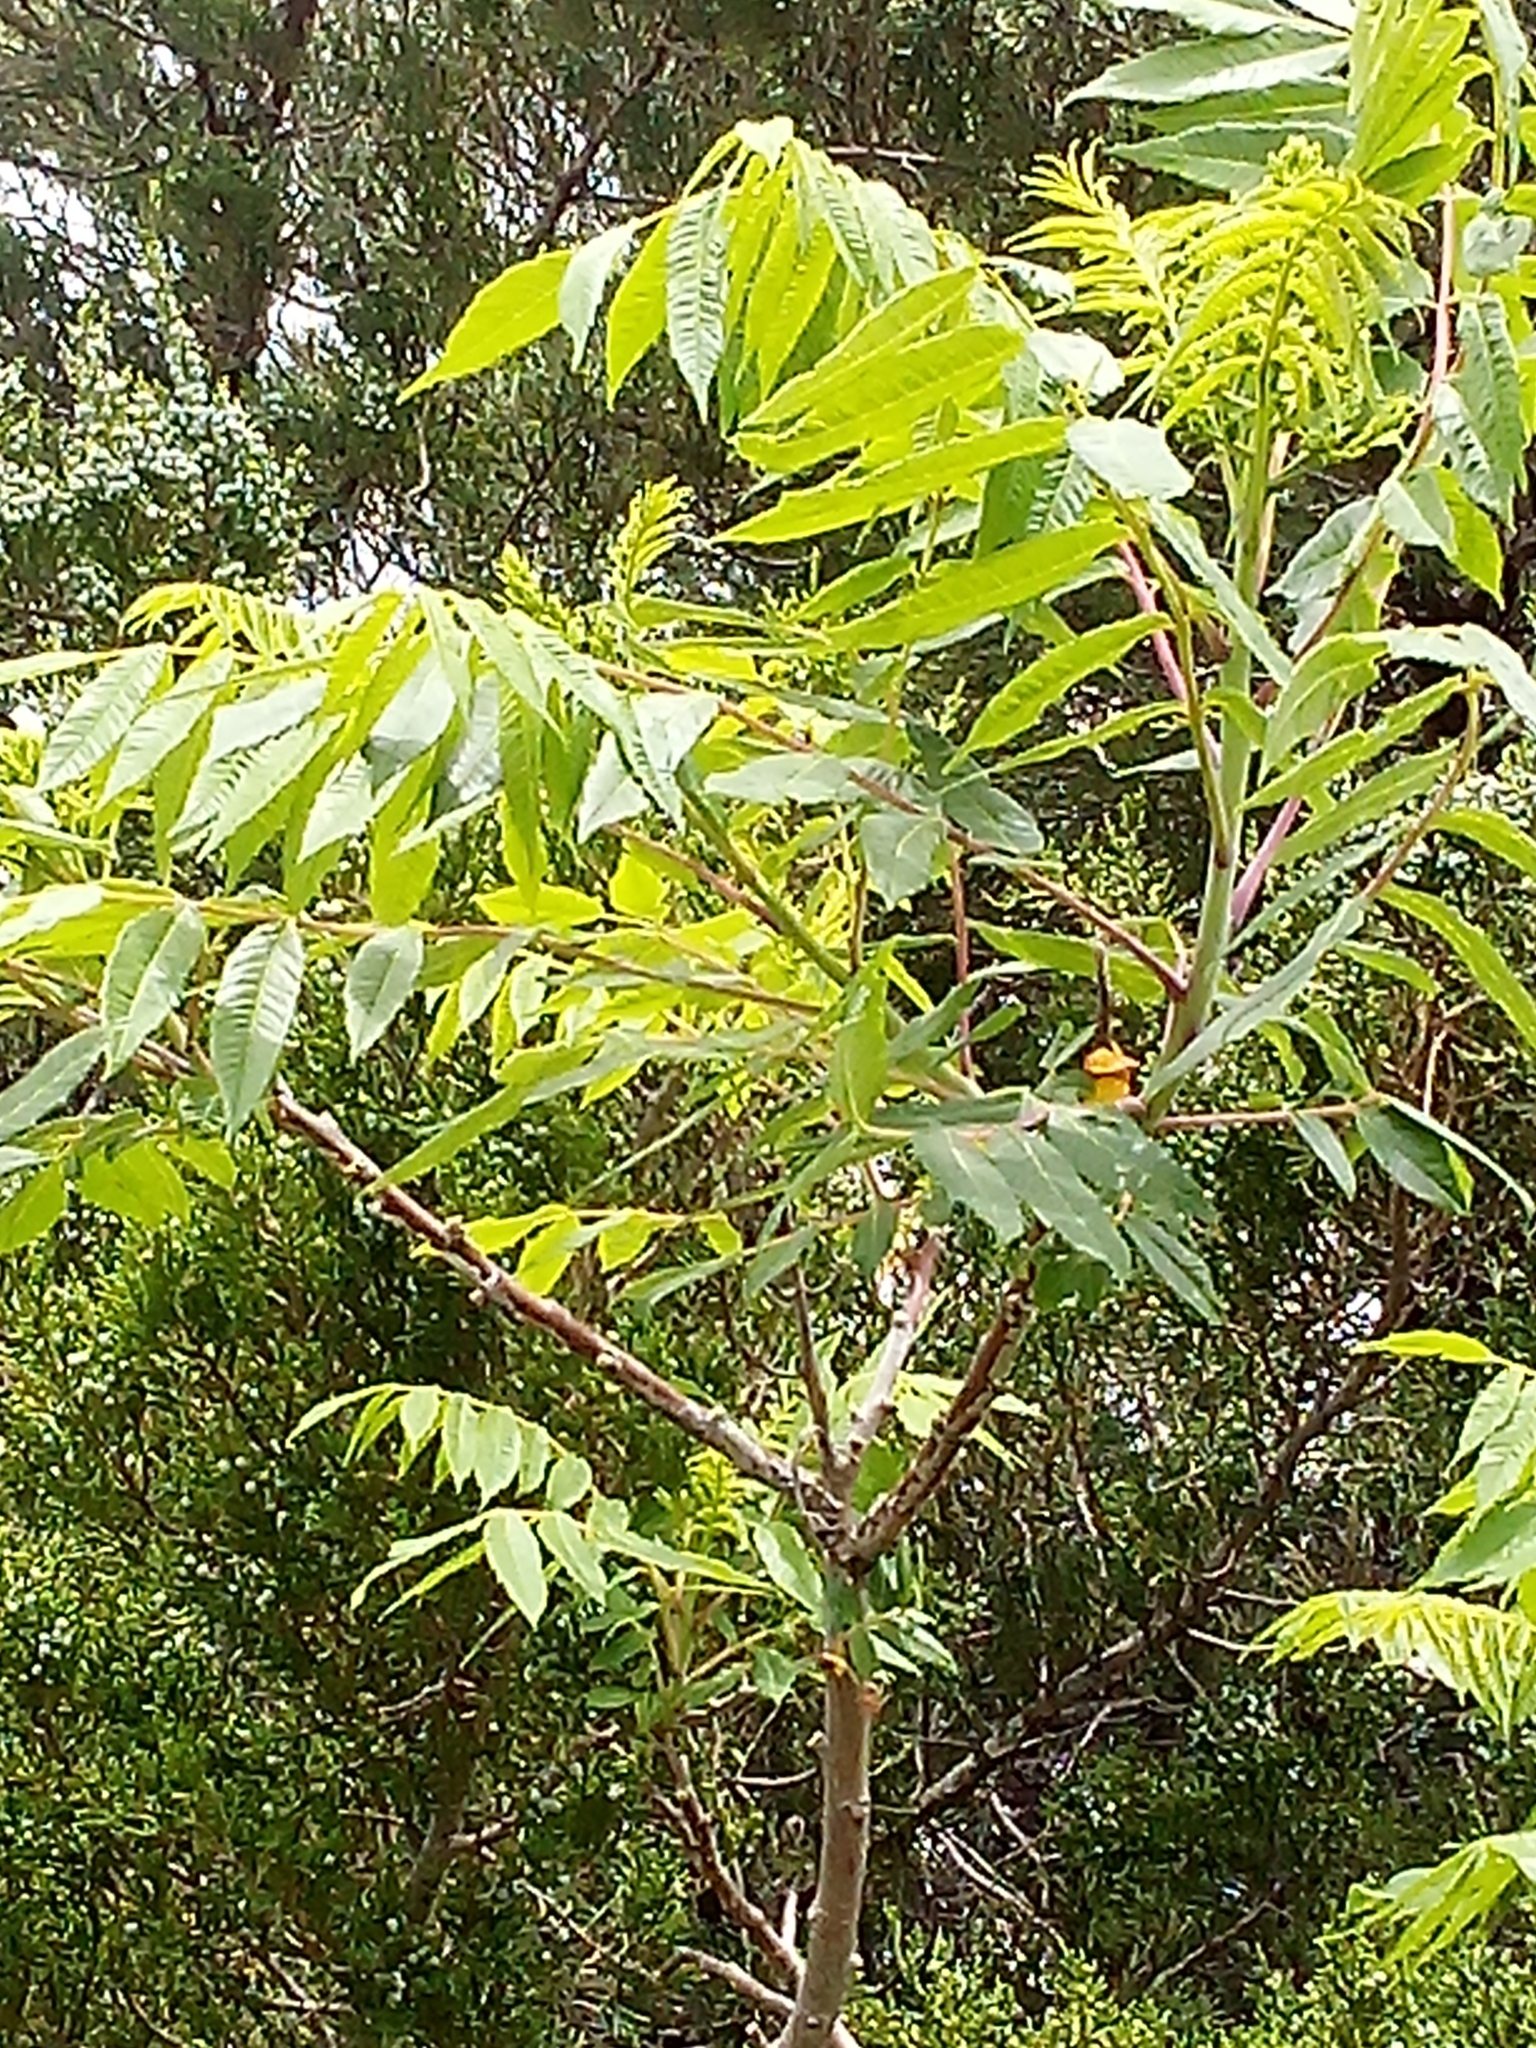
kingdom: Plantae
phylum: Tracheophyta
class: Magnoliopsida
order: Sapindales
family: Anacardiaceae
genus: Rhus
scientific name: Rhus glabra
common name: Scarlet sumac
